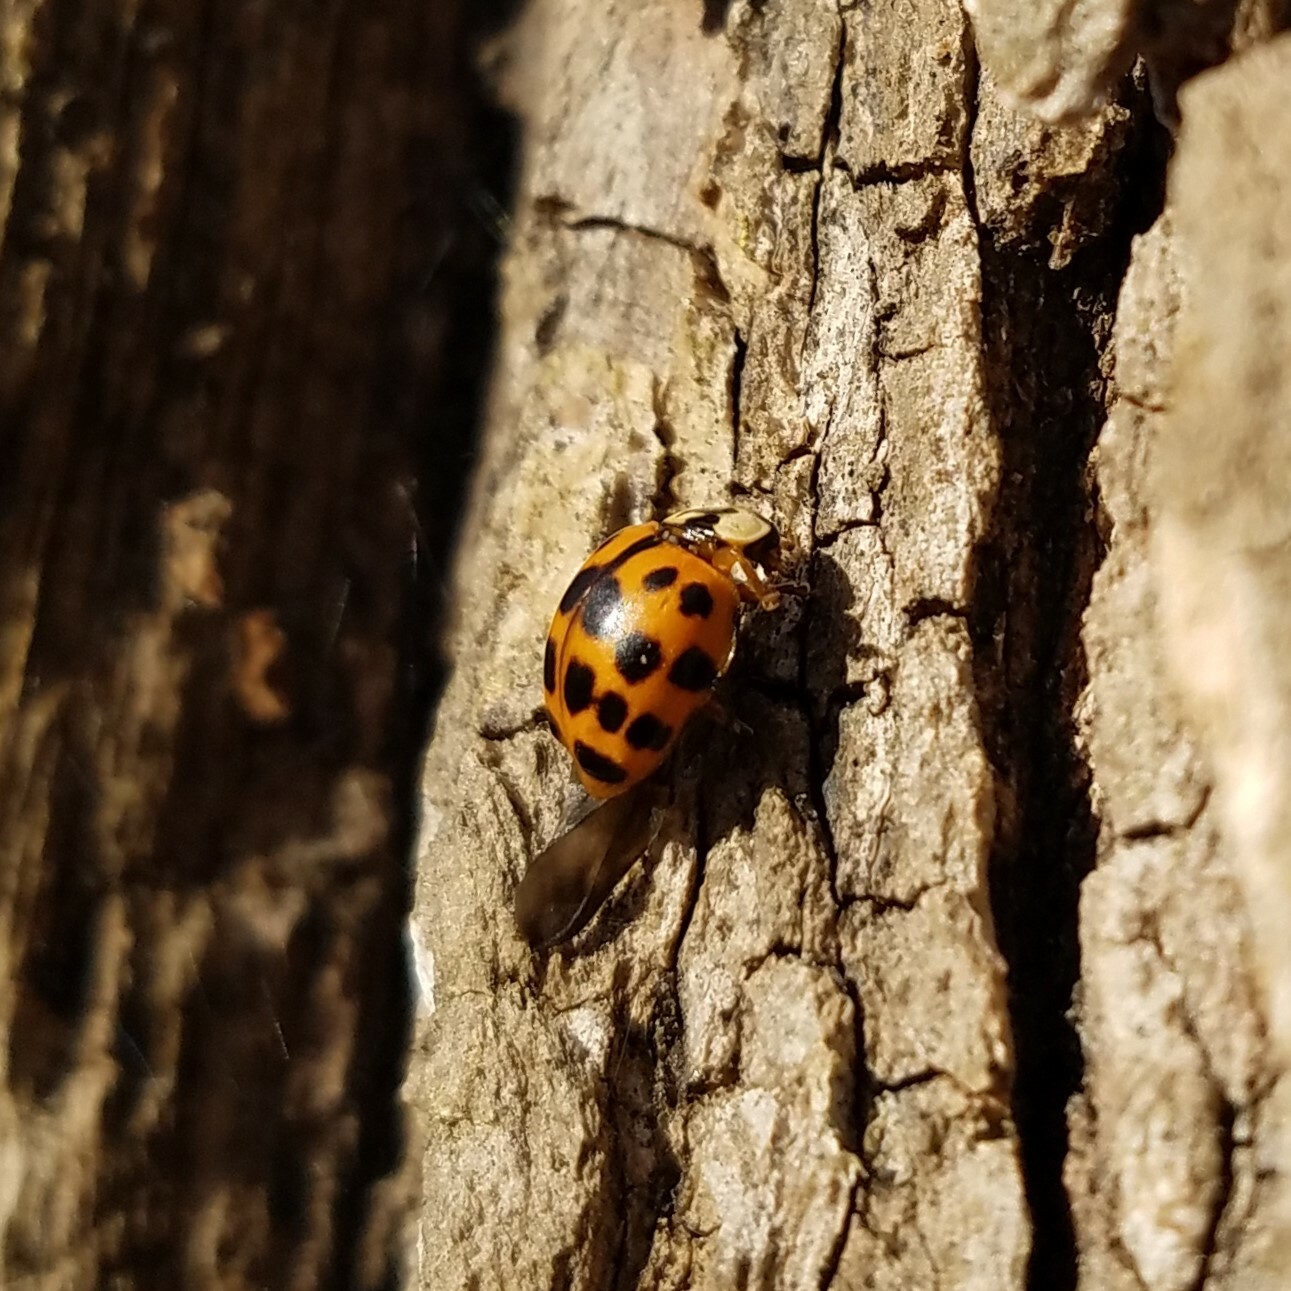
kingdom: Animalia
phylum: Arthropoda
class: Insecta
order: Coleoptera
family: Coccinellidae
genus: Harmonia
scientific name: Harmonia axyridis
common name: Harlequin ladybird
